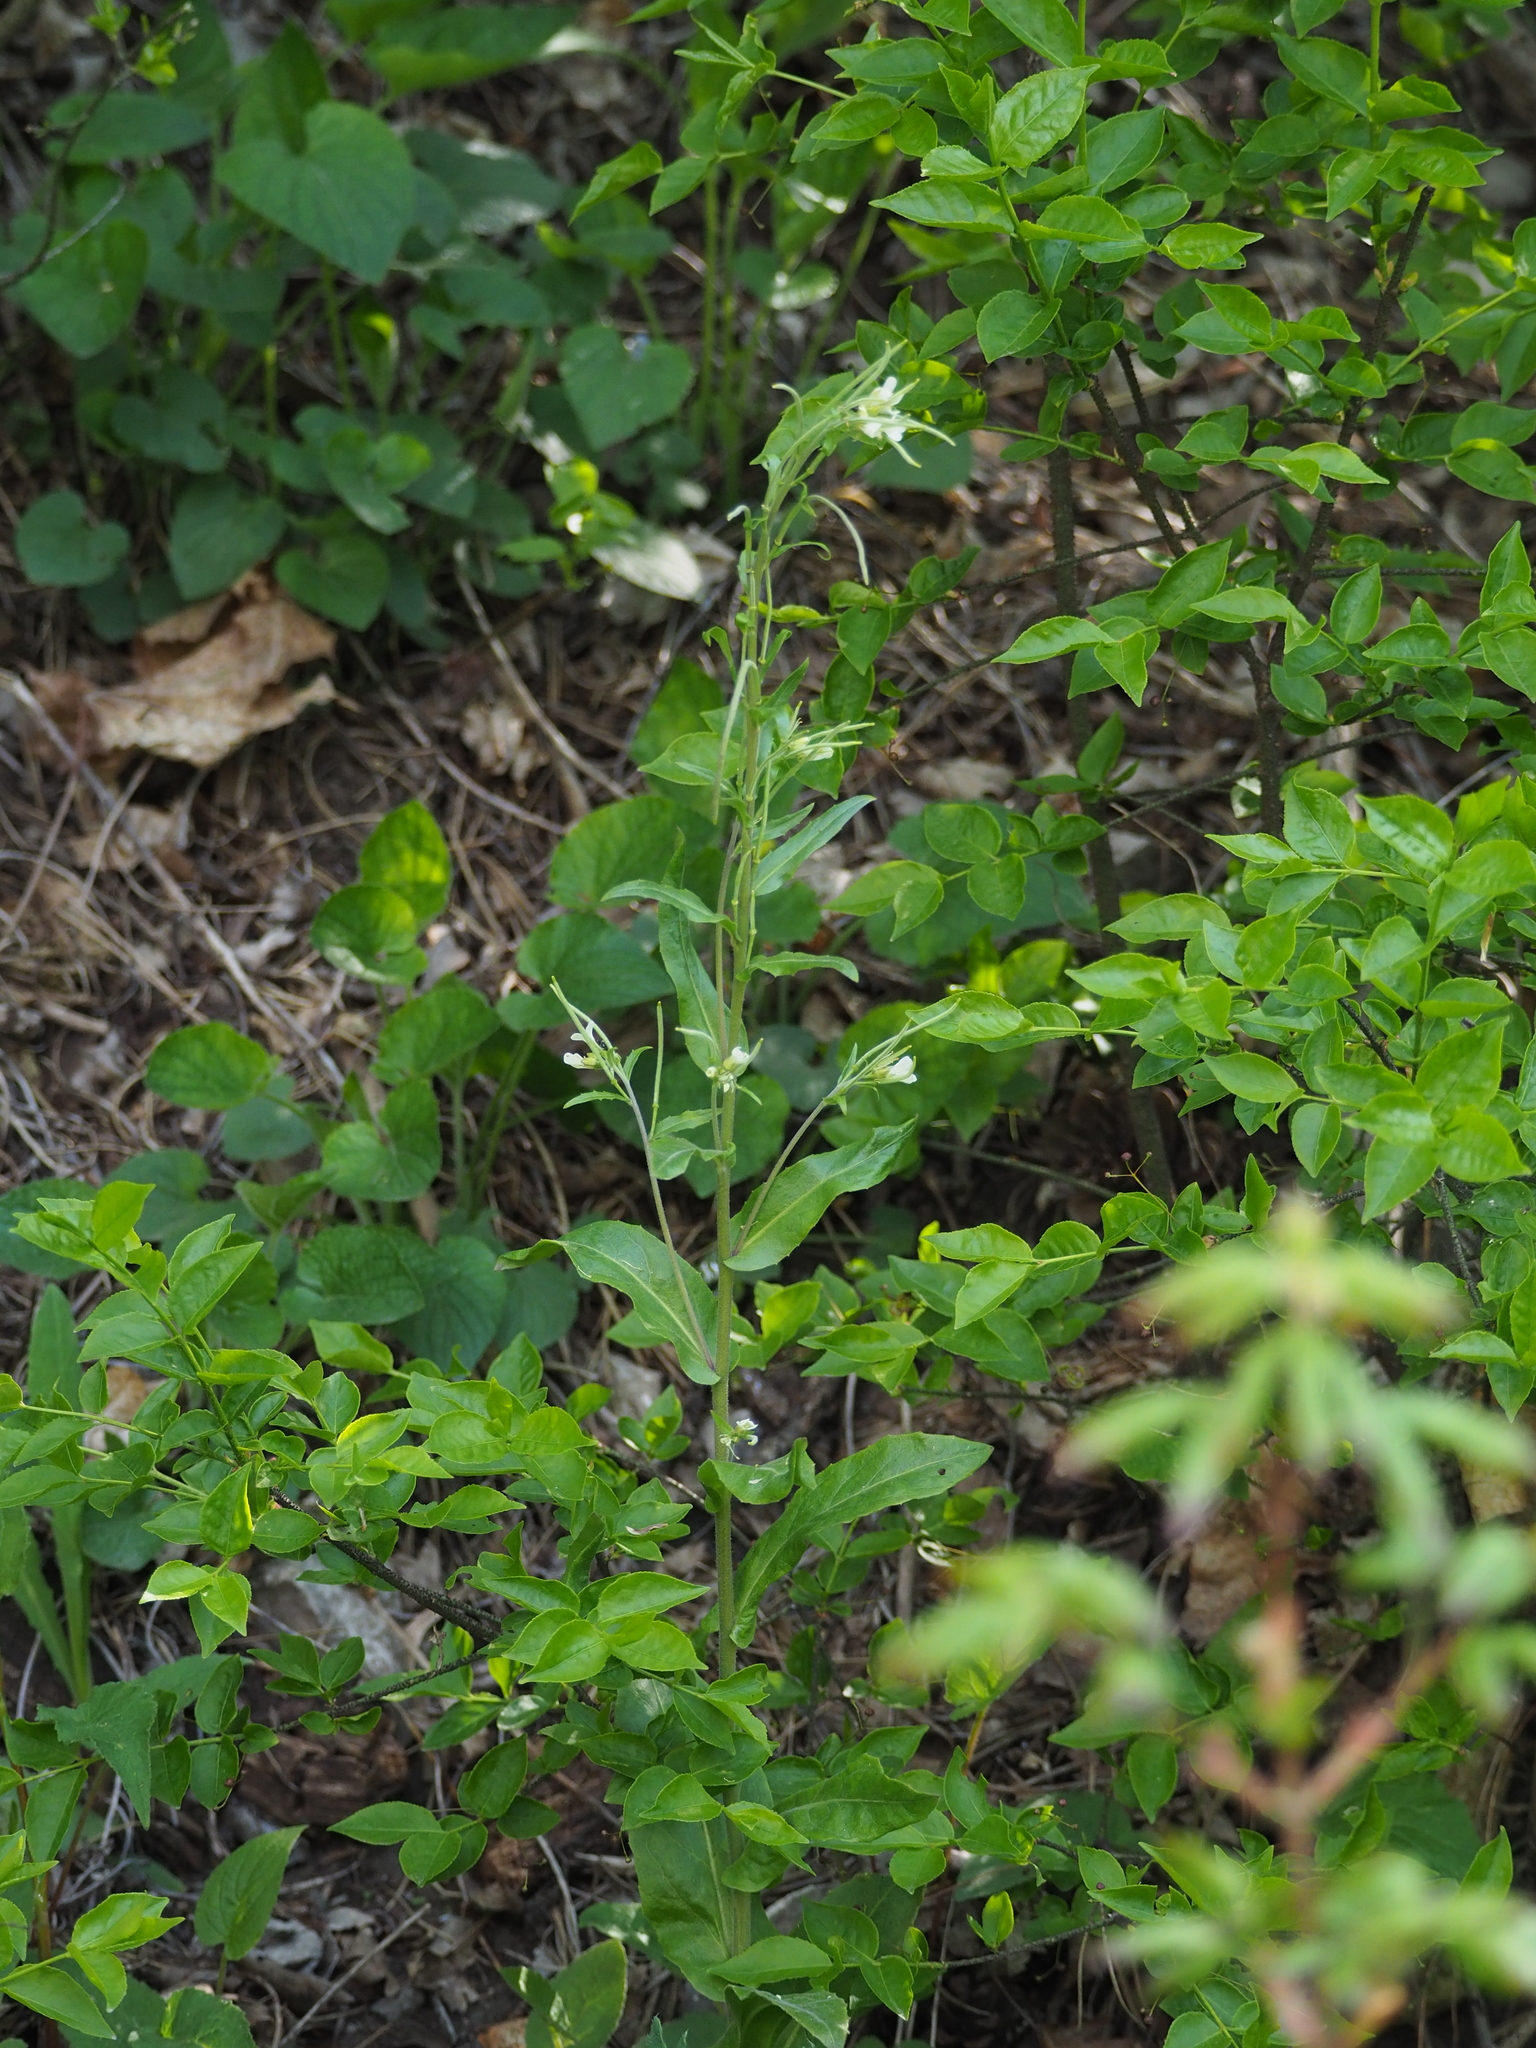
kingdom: Plantae
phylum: Tracheophyta
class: Magnoliopsida
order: Brassicales
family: Brassicaceae
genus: Pseudoturritis
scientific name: Pseudoturritis turrita
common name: Tower cress
